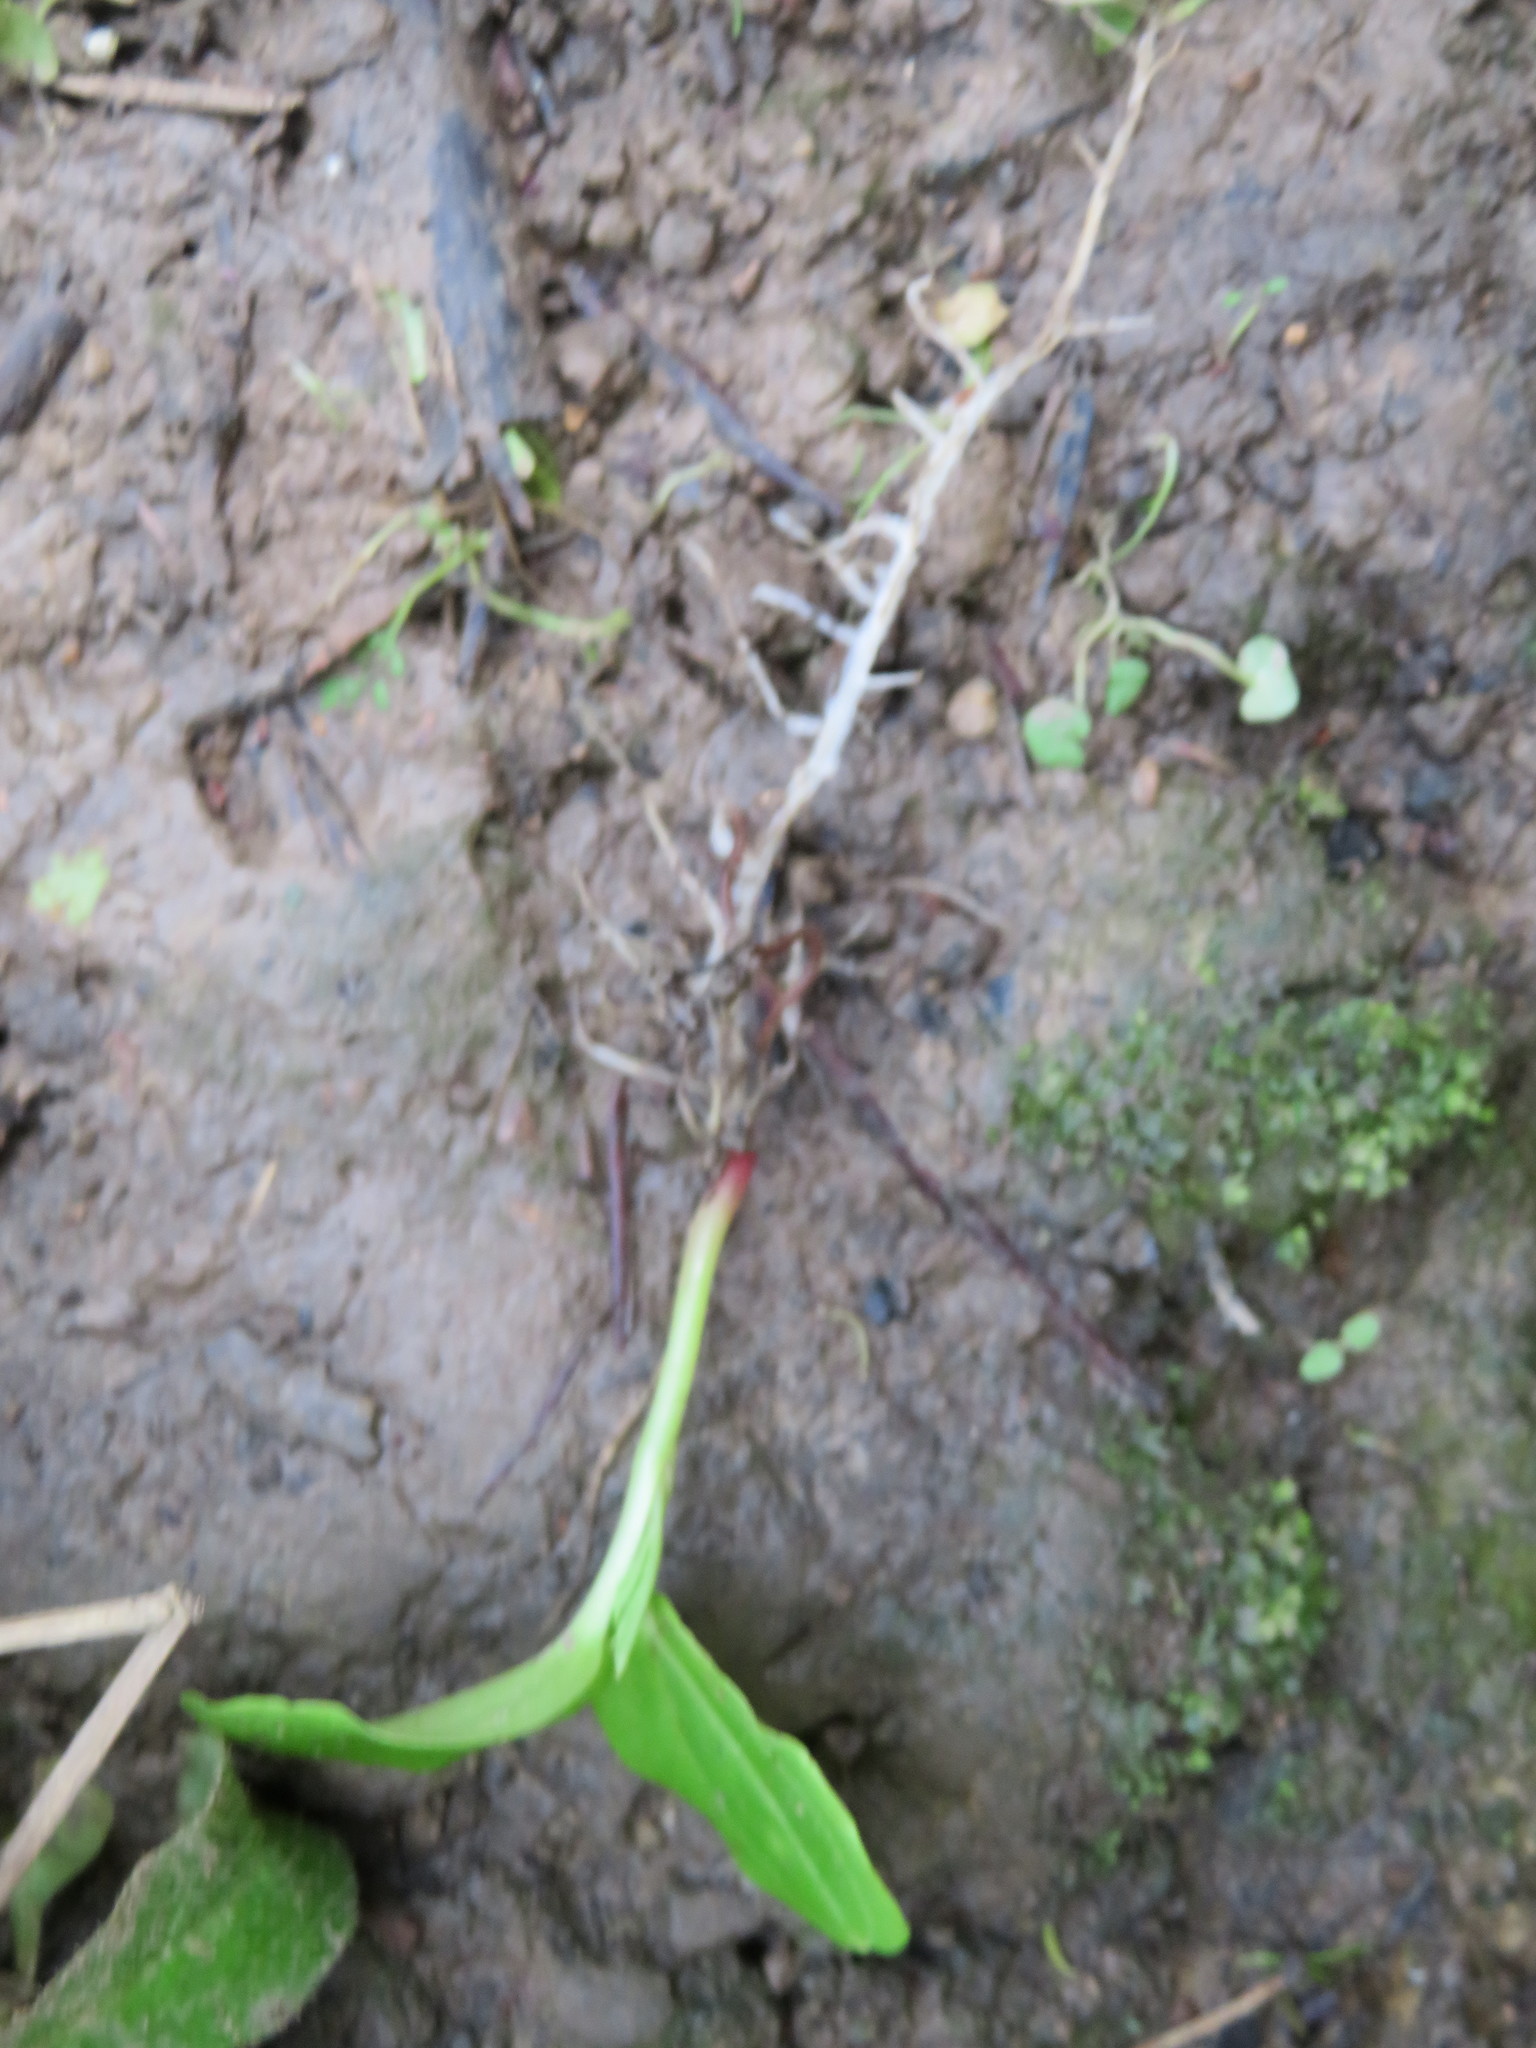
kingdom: Plantae
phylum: Tracheophyta
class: Magnoliopsida
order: Geraniales
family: Melianthaceae
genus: Melianthus
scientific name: Melianthus major
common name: Honey-flower
